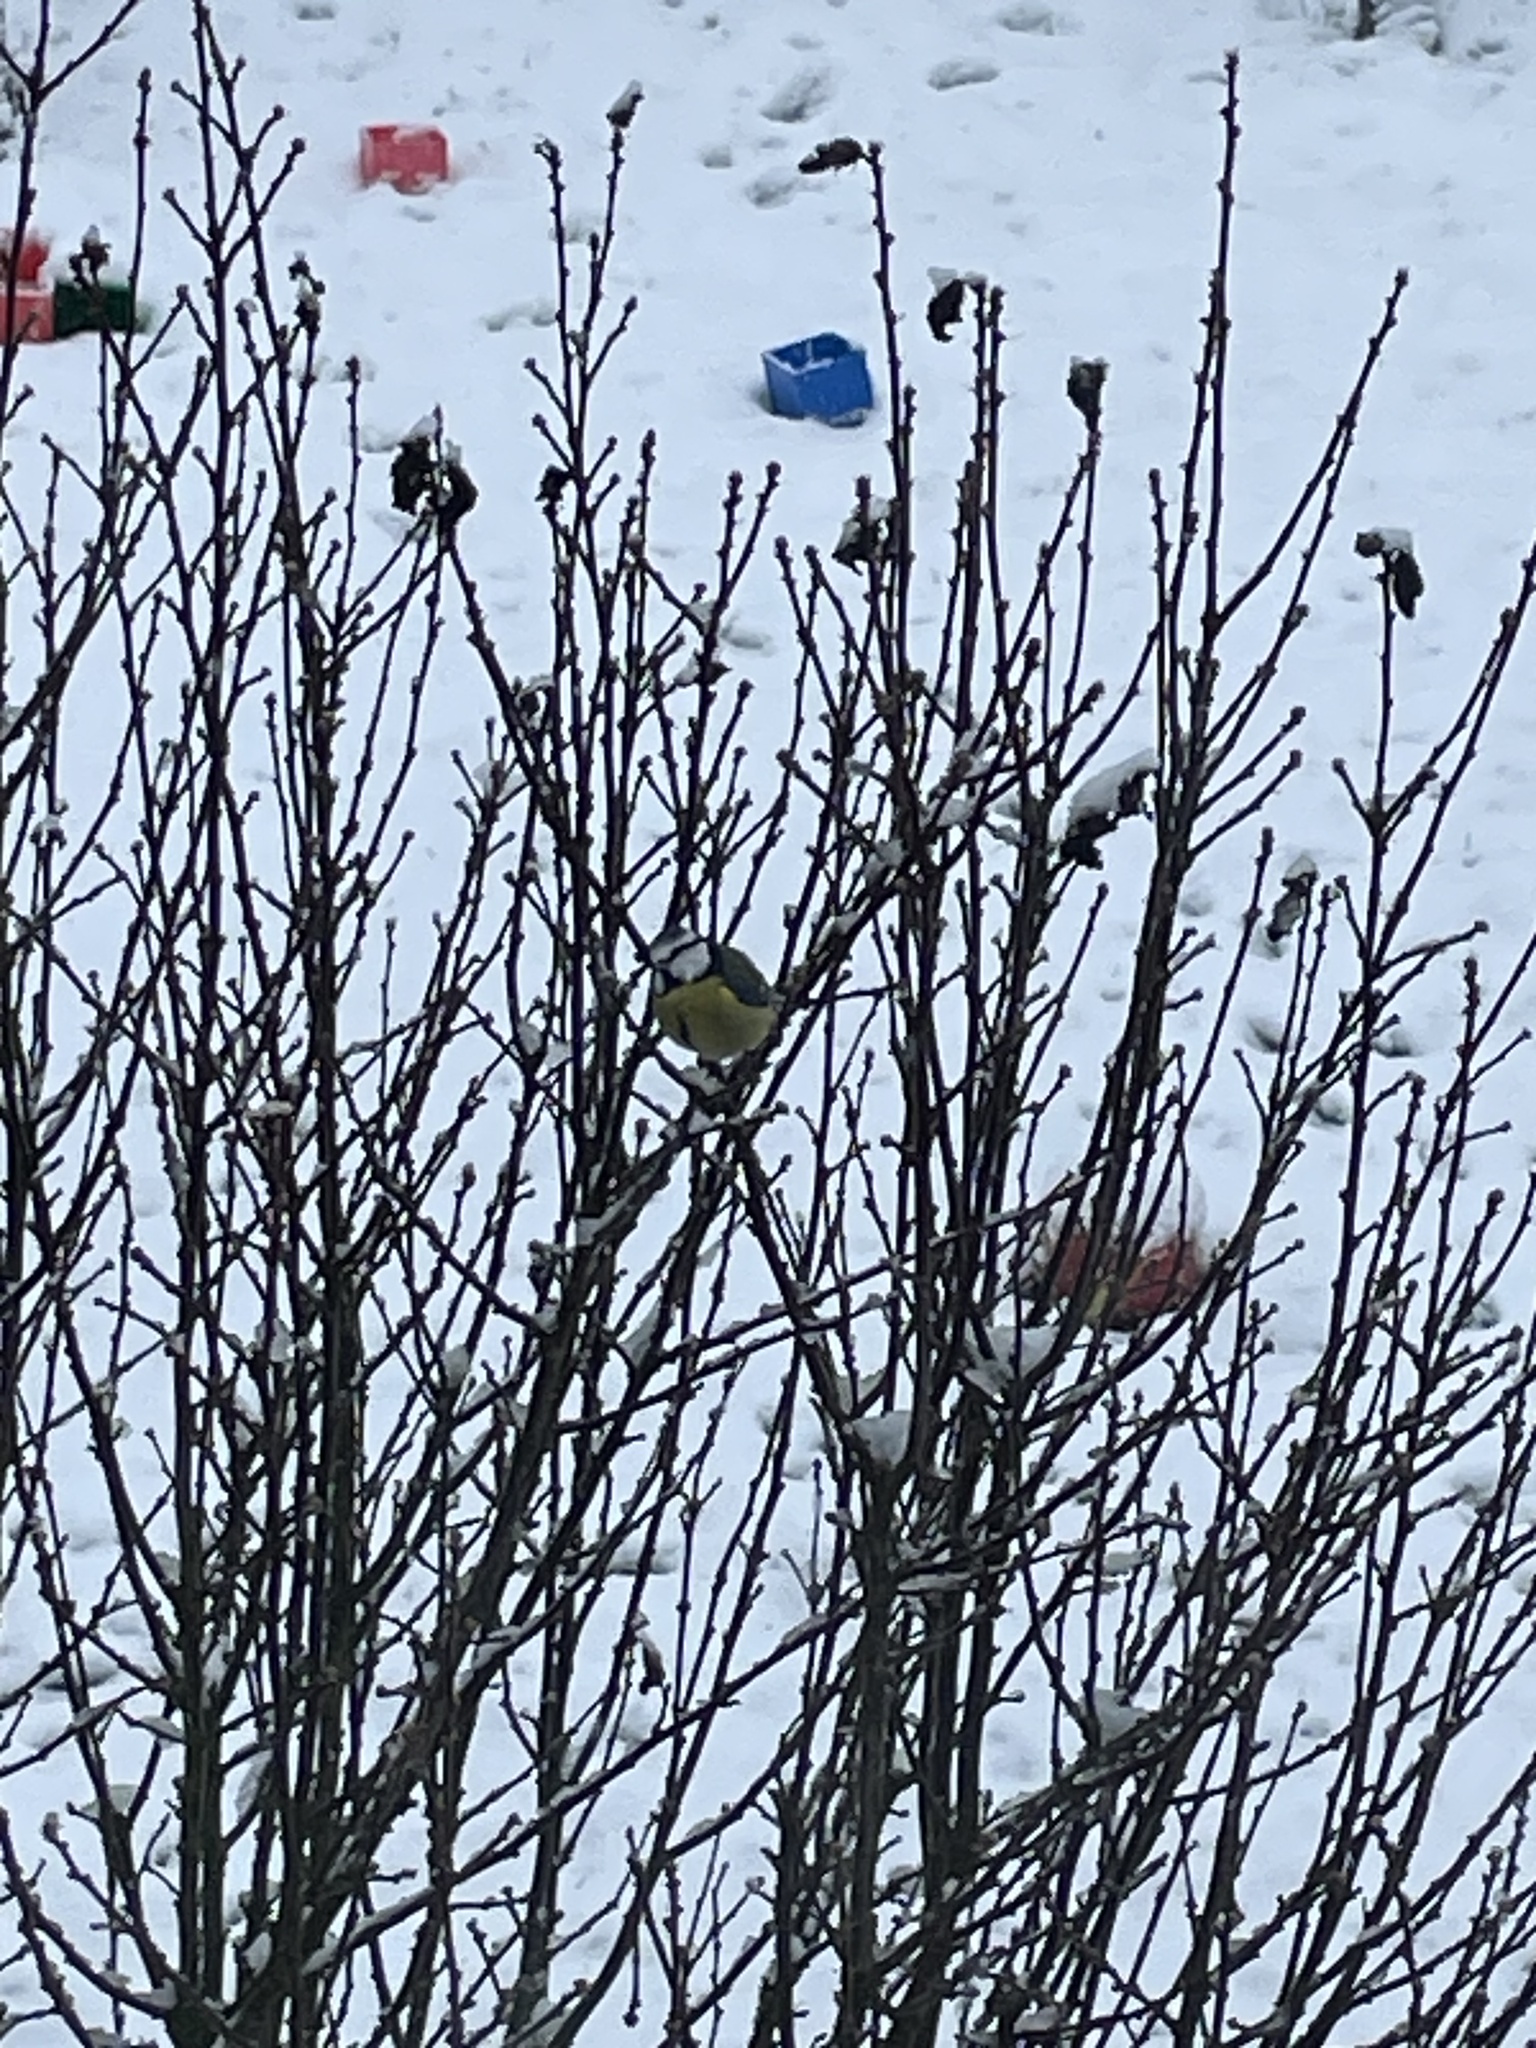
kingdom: Animalia
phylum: Chordata
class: Aves
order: Passeriformes
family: Paridae
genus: Cyanistes
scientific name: Cyanistes caeruleus
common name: Eurasian blue tit
